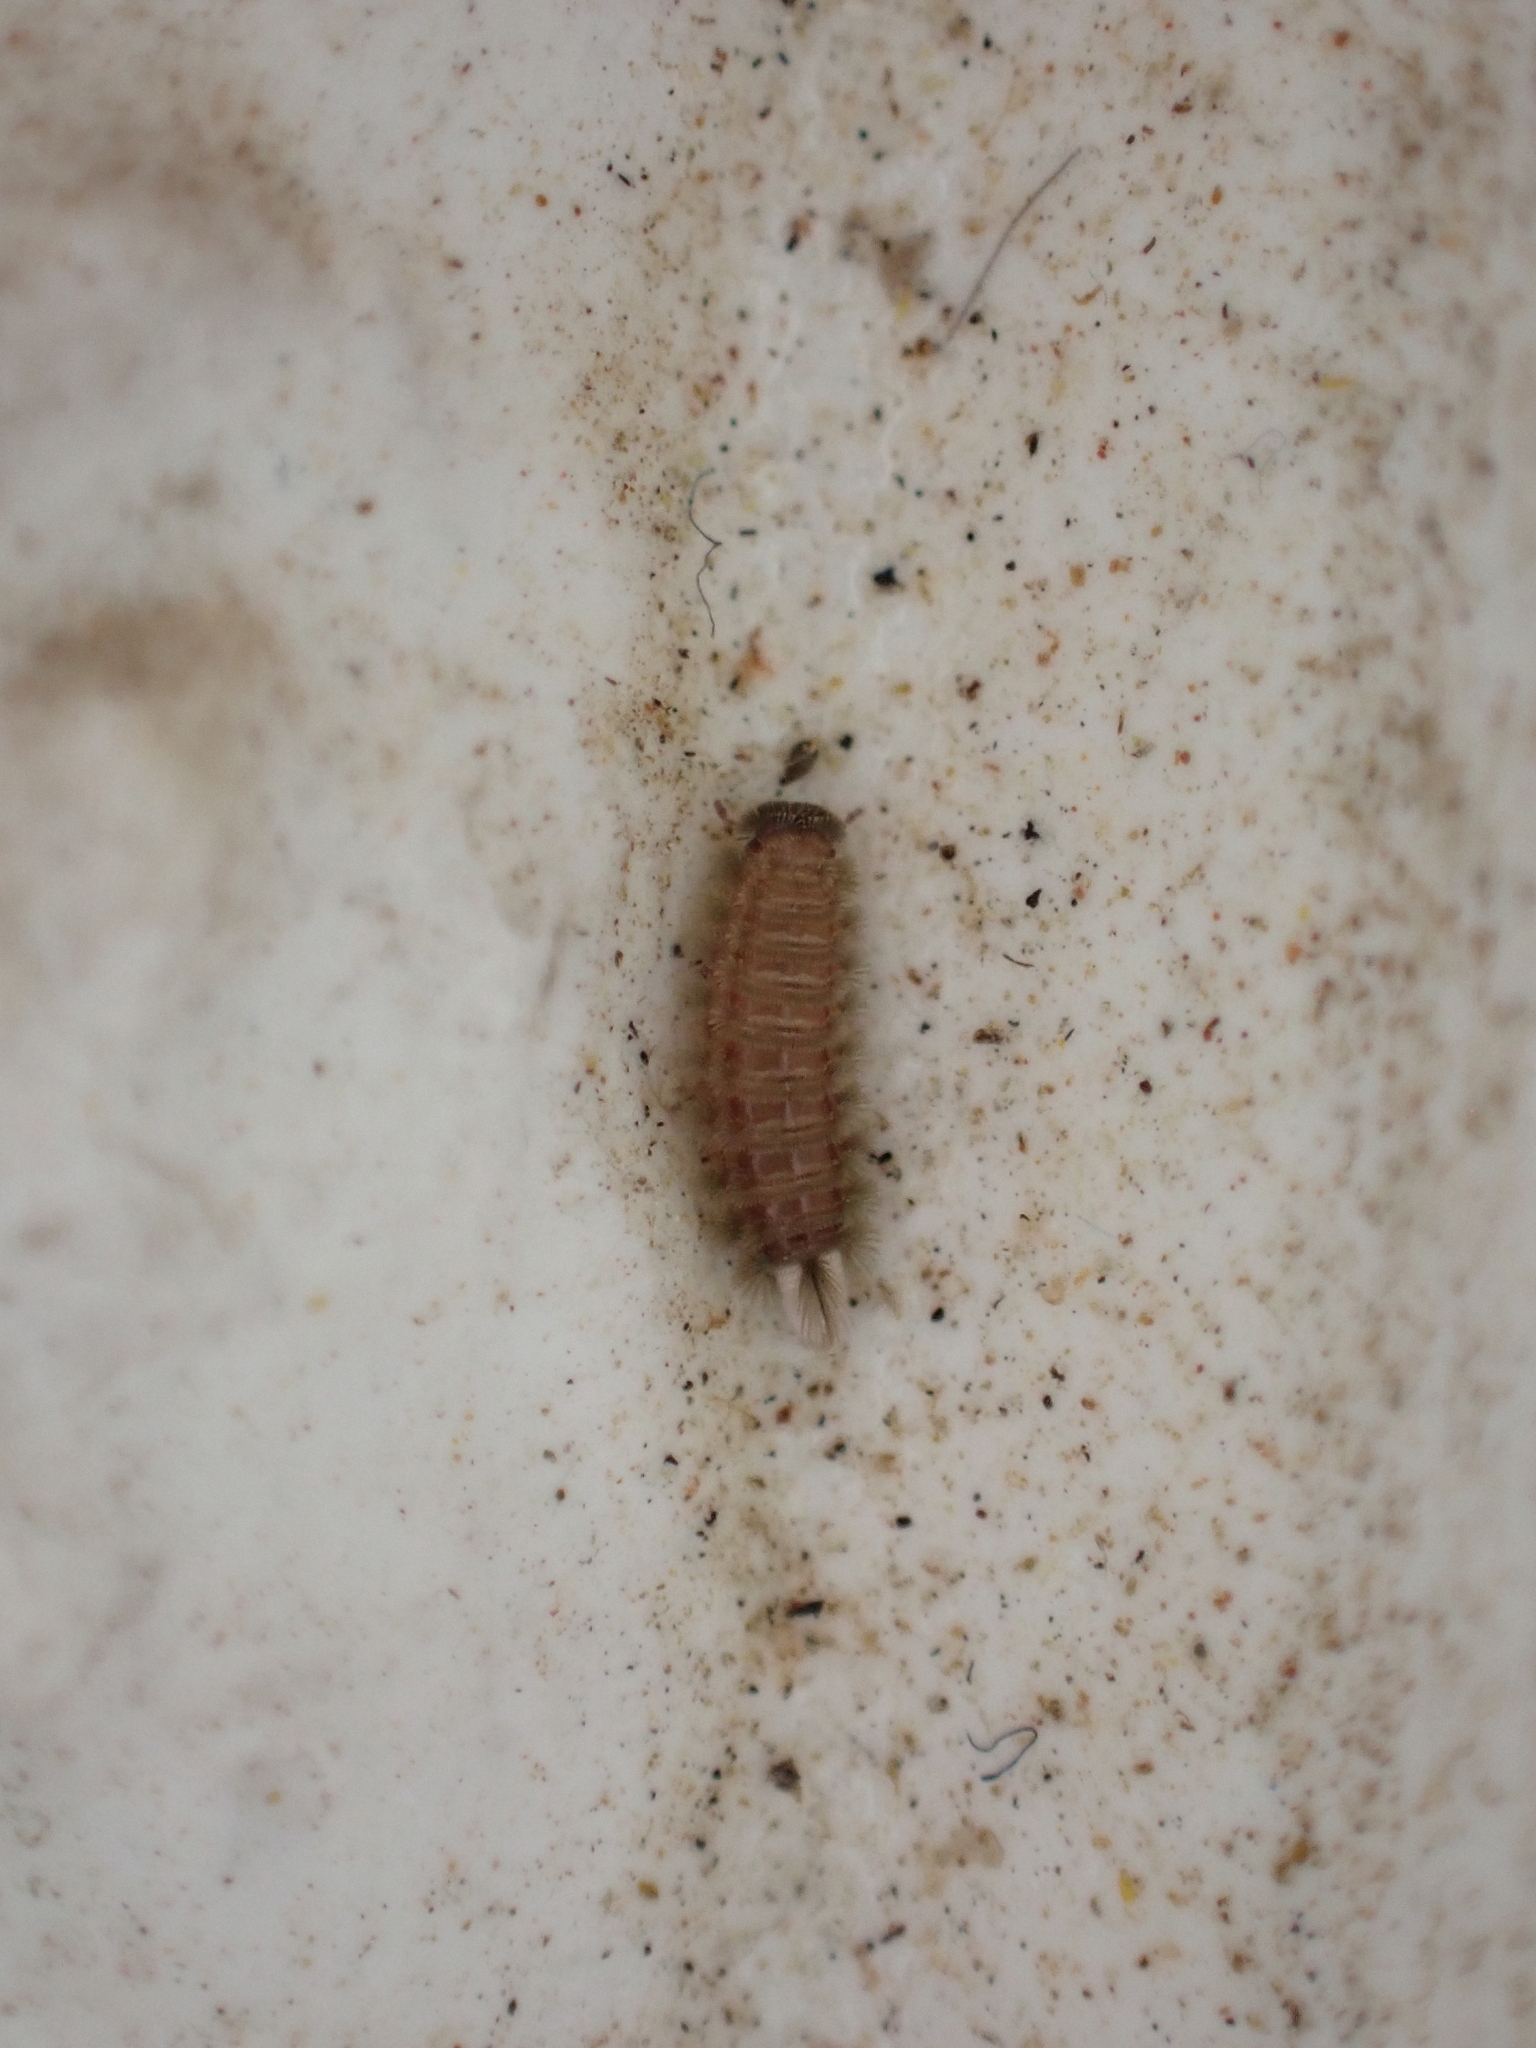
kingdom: Animalia
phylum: Arthropoda
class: Diplopoda
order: Polyxenida
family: Polyxenidae
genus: Polyxenus
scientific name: Polyxenus lagurus
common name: Bristly millipede
